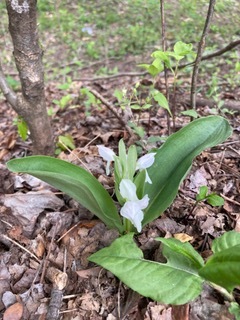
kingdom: Plantae
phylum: Tracheophyta
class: Liliopsida
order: Asparagales
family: Orchidaceae
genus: Galearis
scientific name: Galearis spectabilis
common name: Purple-hooded orchis
